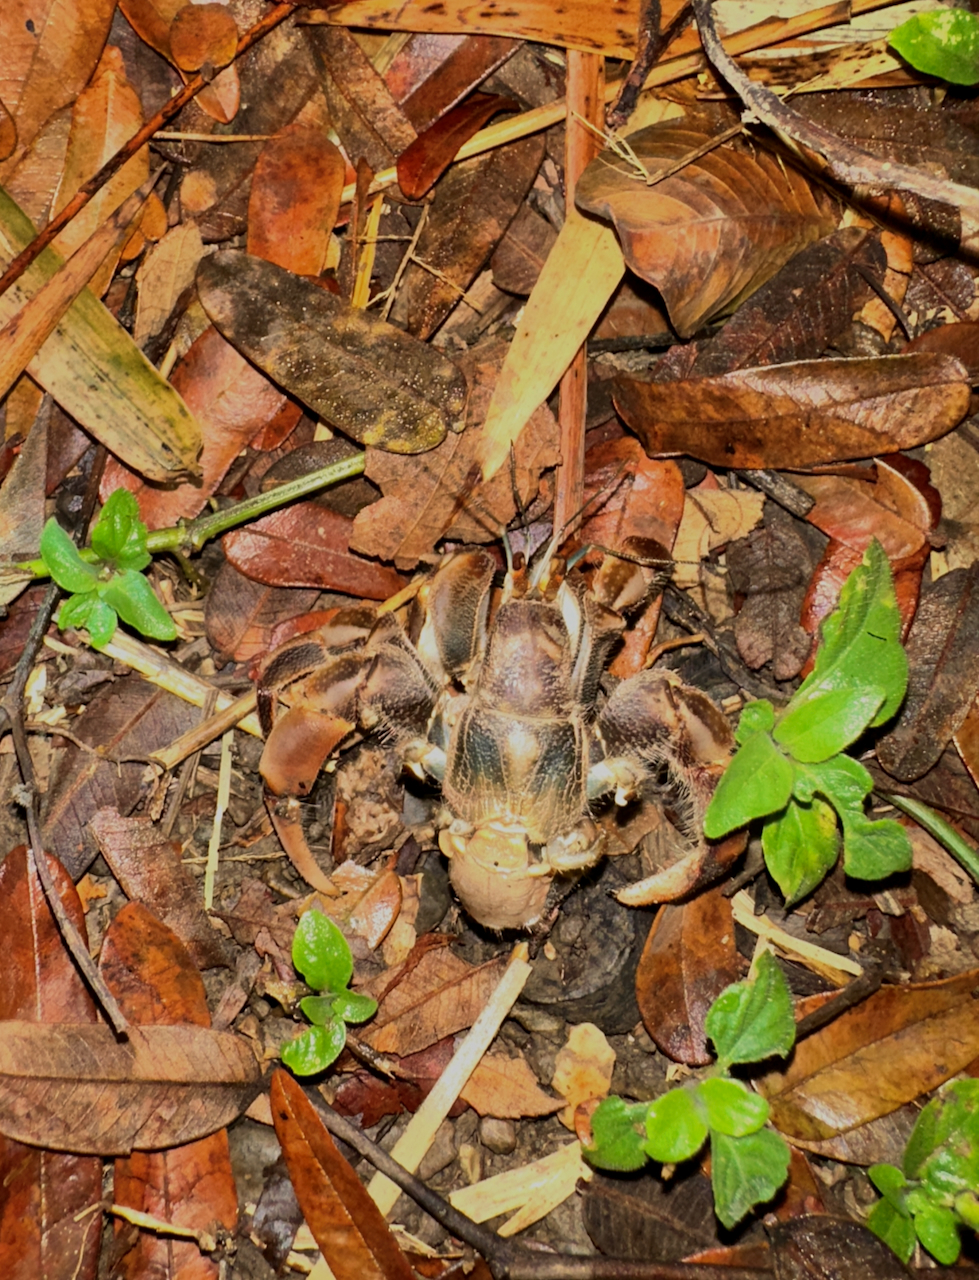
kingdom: Animalia
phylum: Arthropoda
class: Malacostraca
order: Decapoda
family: Coenobitidae
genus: Coenobita
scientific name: Coenobita compressus
